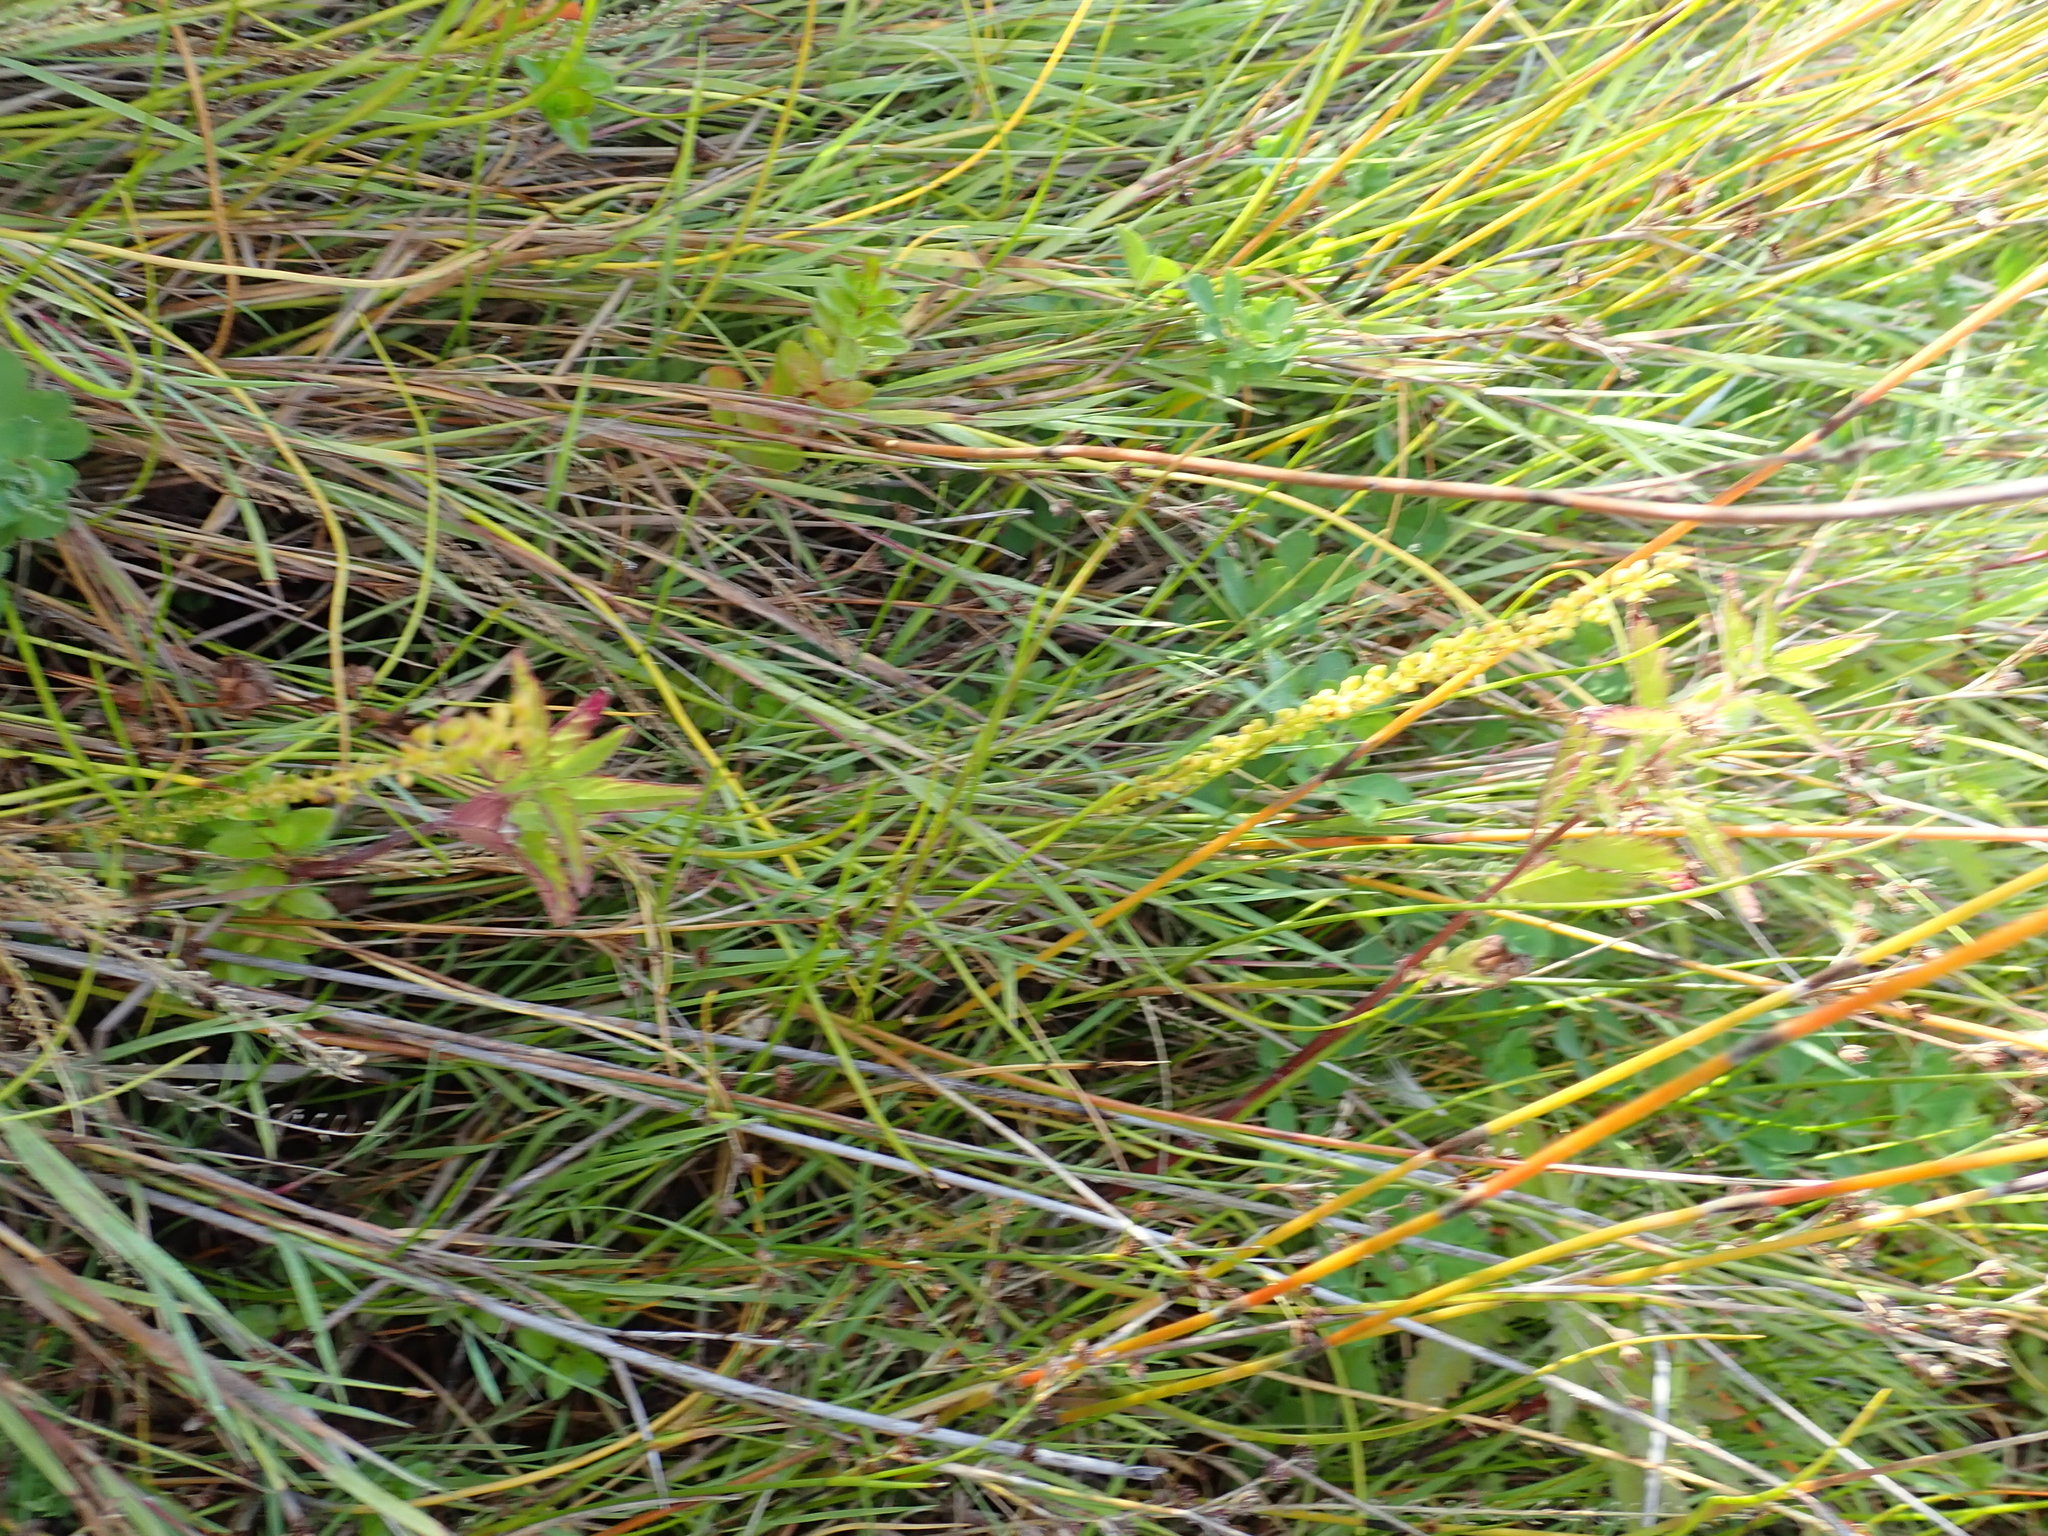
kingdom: Plantae
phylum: Tracheophyta
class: Liliopsida
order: Alismatales
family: Juncaginaceae
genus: Triglochin
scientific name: Triglochin striata
